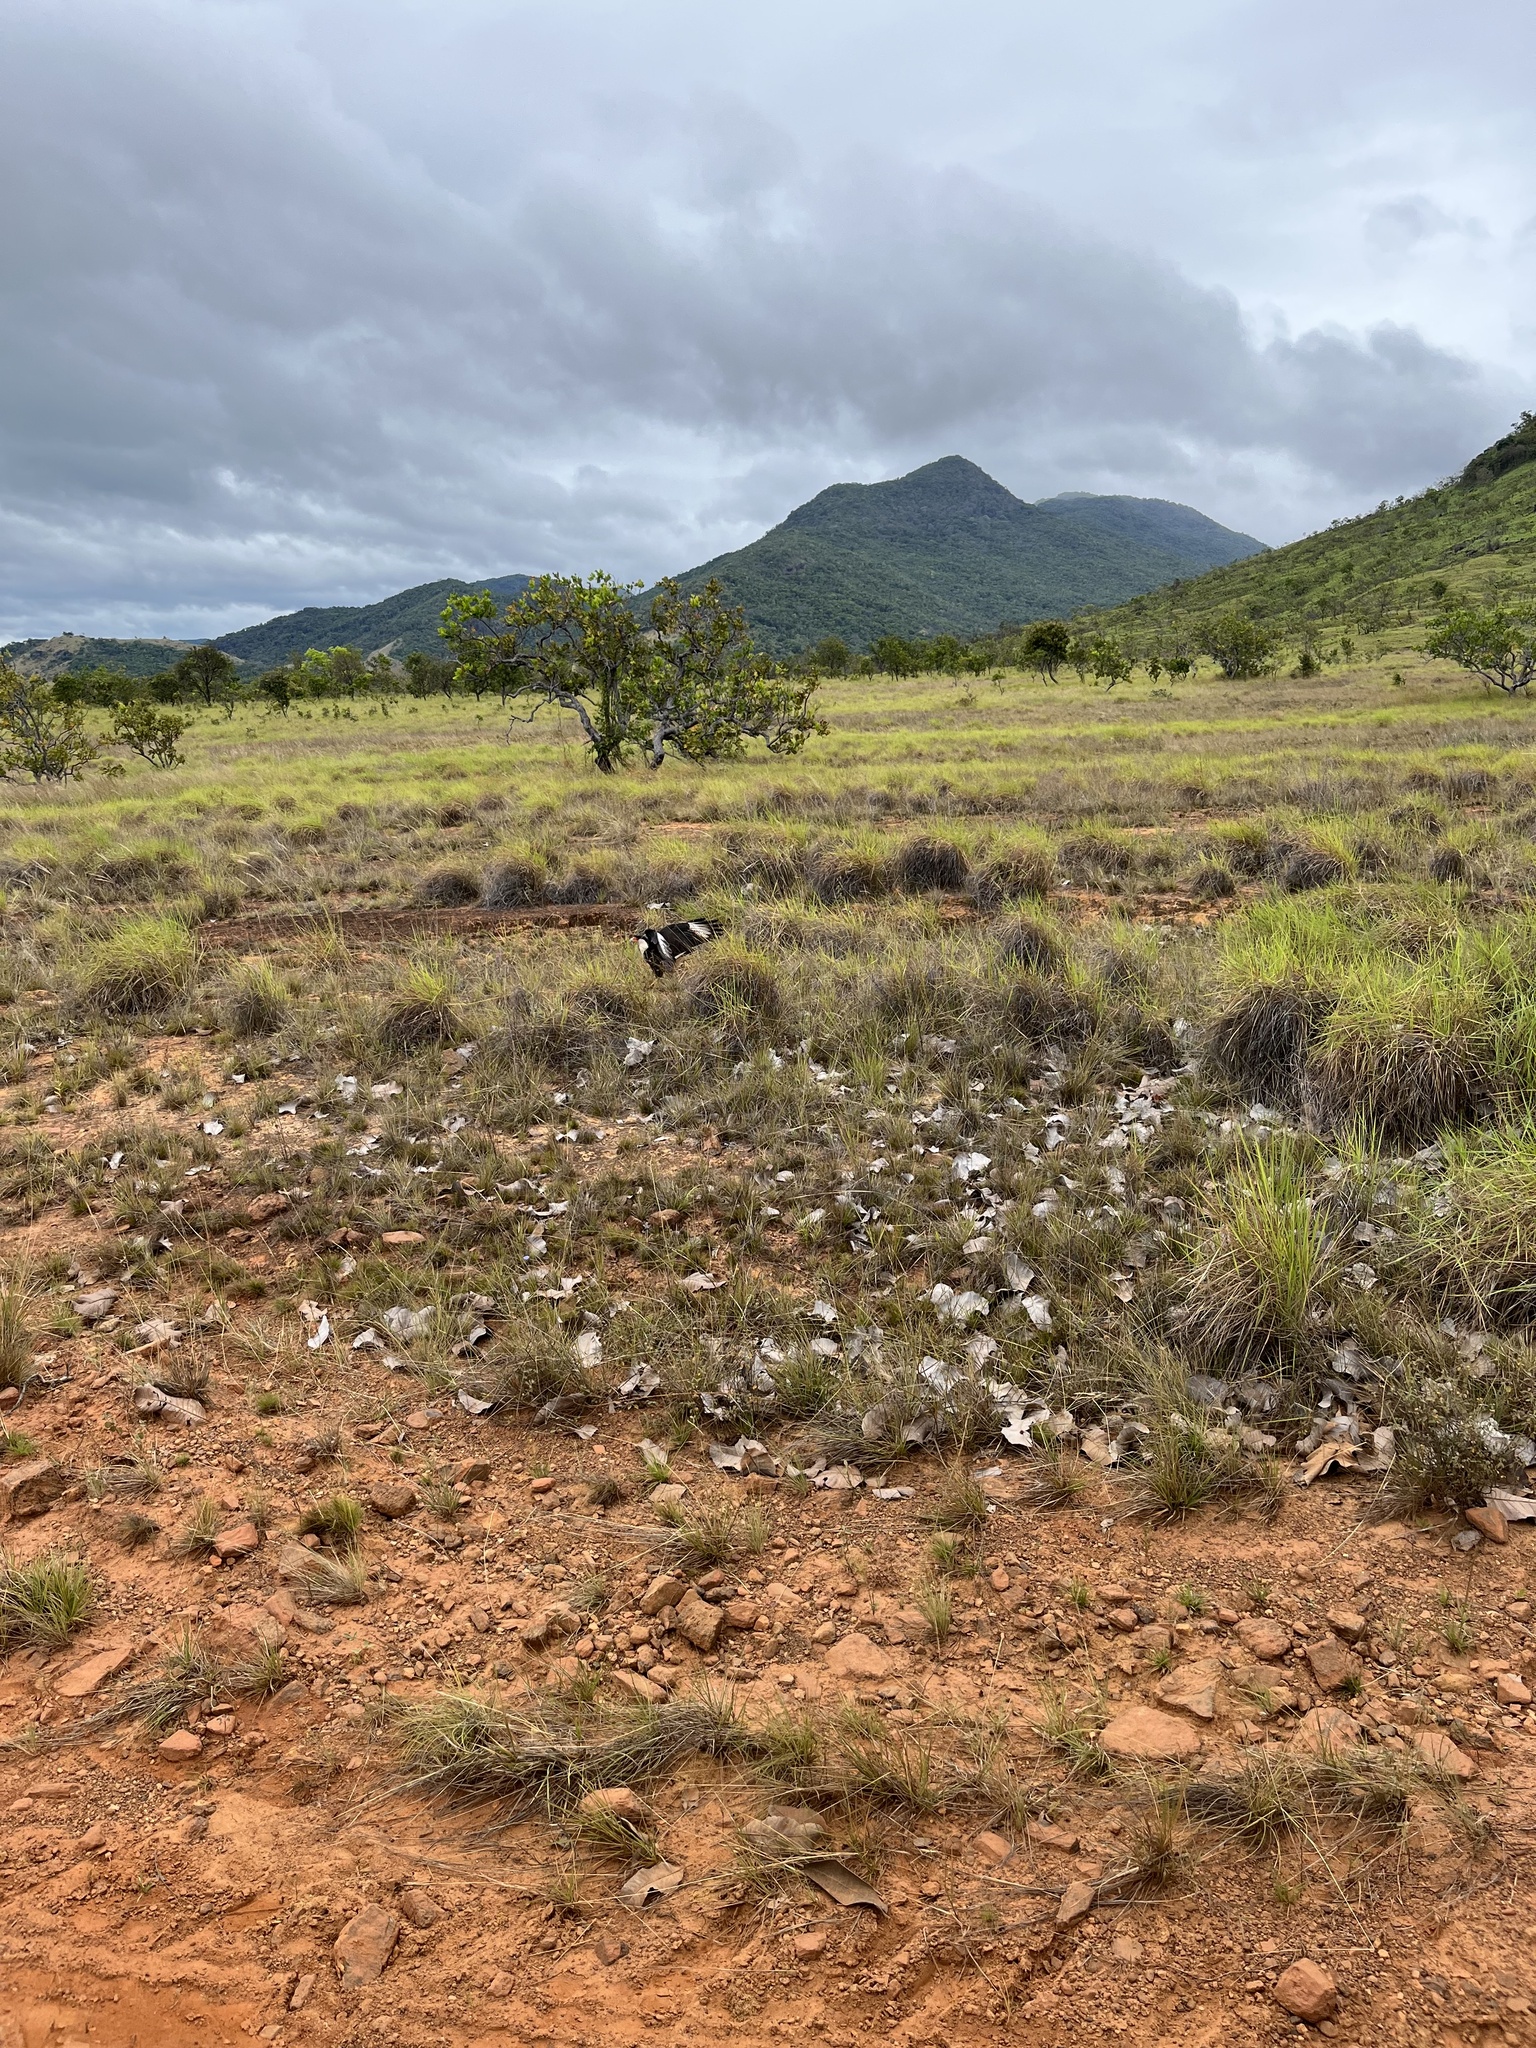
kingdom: Animalia
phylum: Chordata
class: Aves
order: Falconiformes
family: Falconidae
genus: Caracara
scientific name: Caracara plancus
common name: Southern caracara
